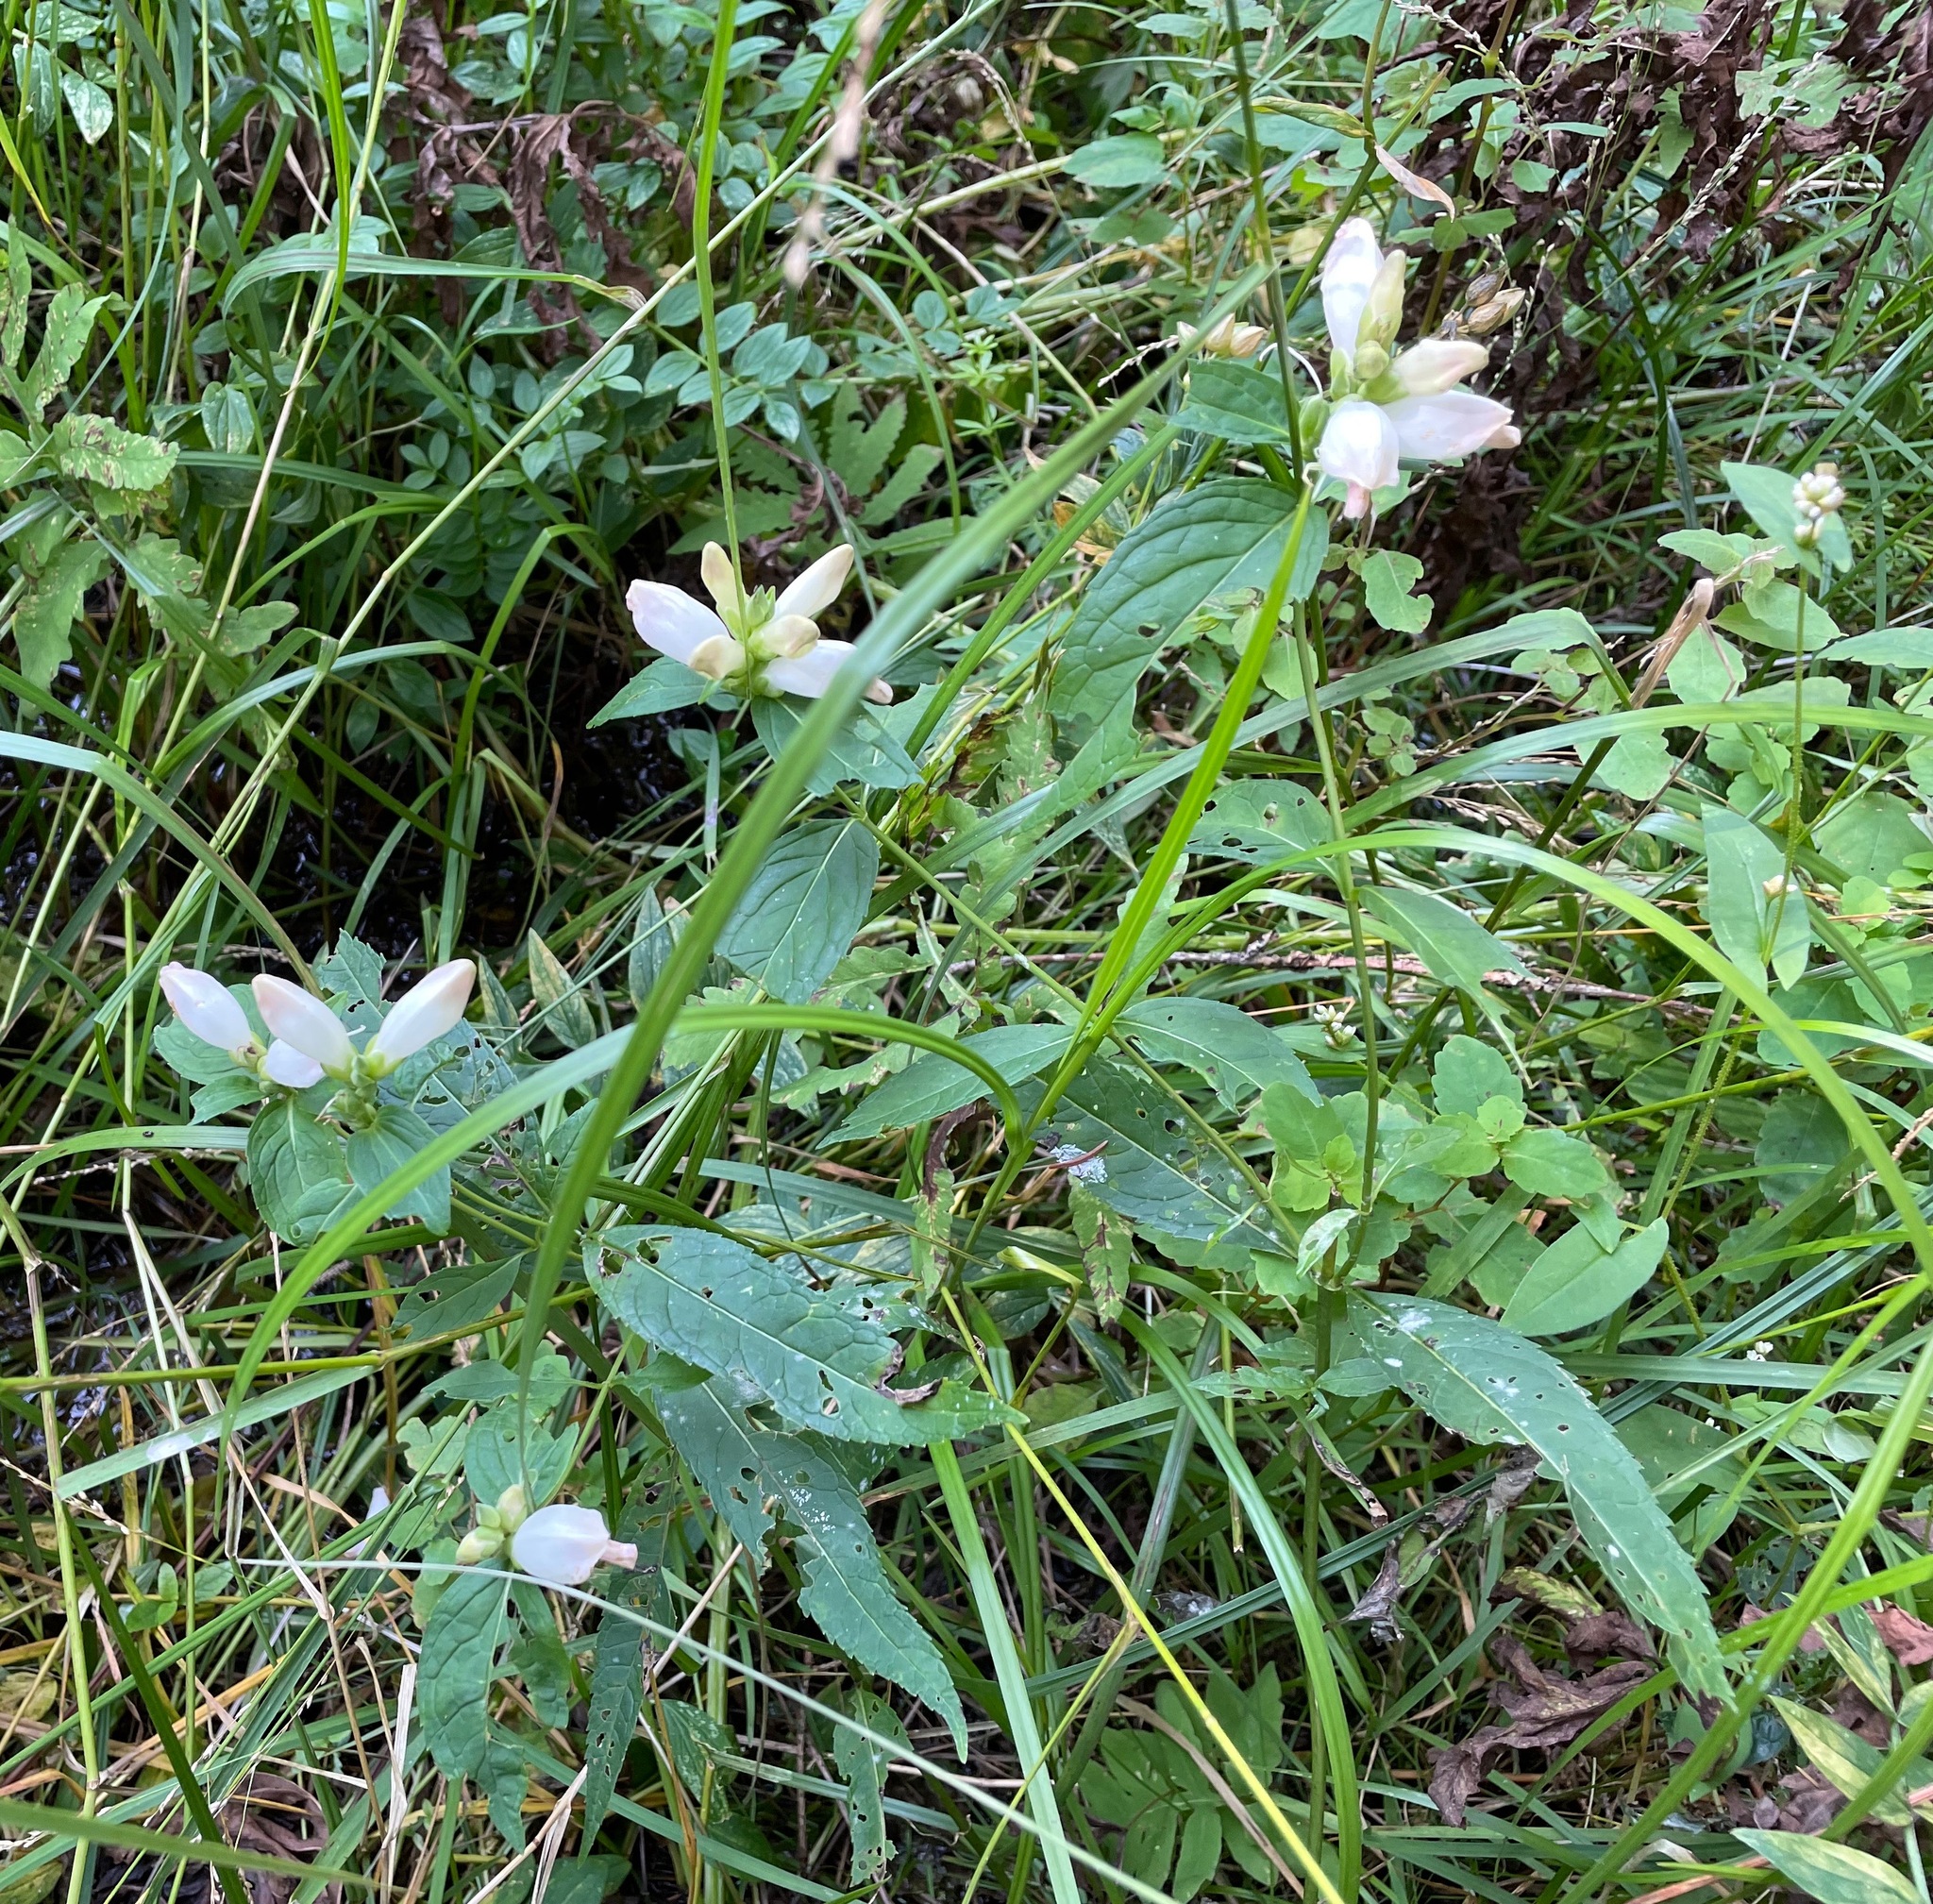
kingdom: Plantae
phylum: Tracheophyta
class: Magnoliopsida
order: Lamiales
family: Plantaginaceae
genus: Chelone
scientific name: Chelone glabra
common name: Snakehead
